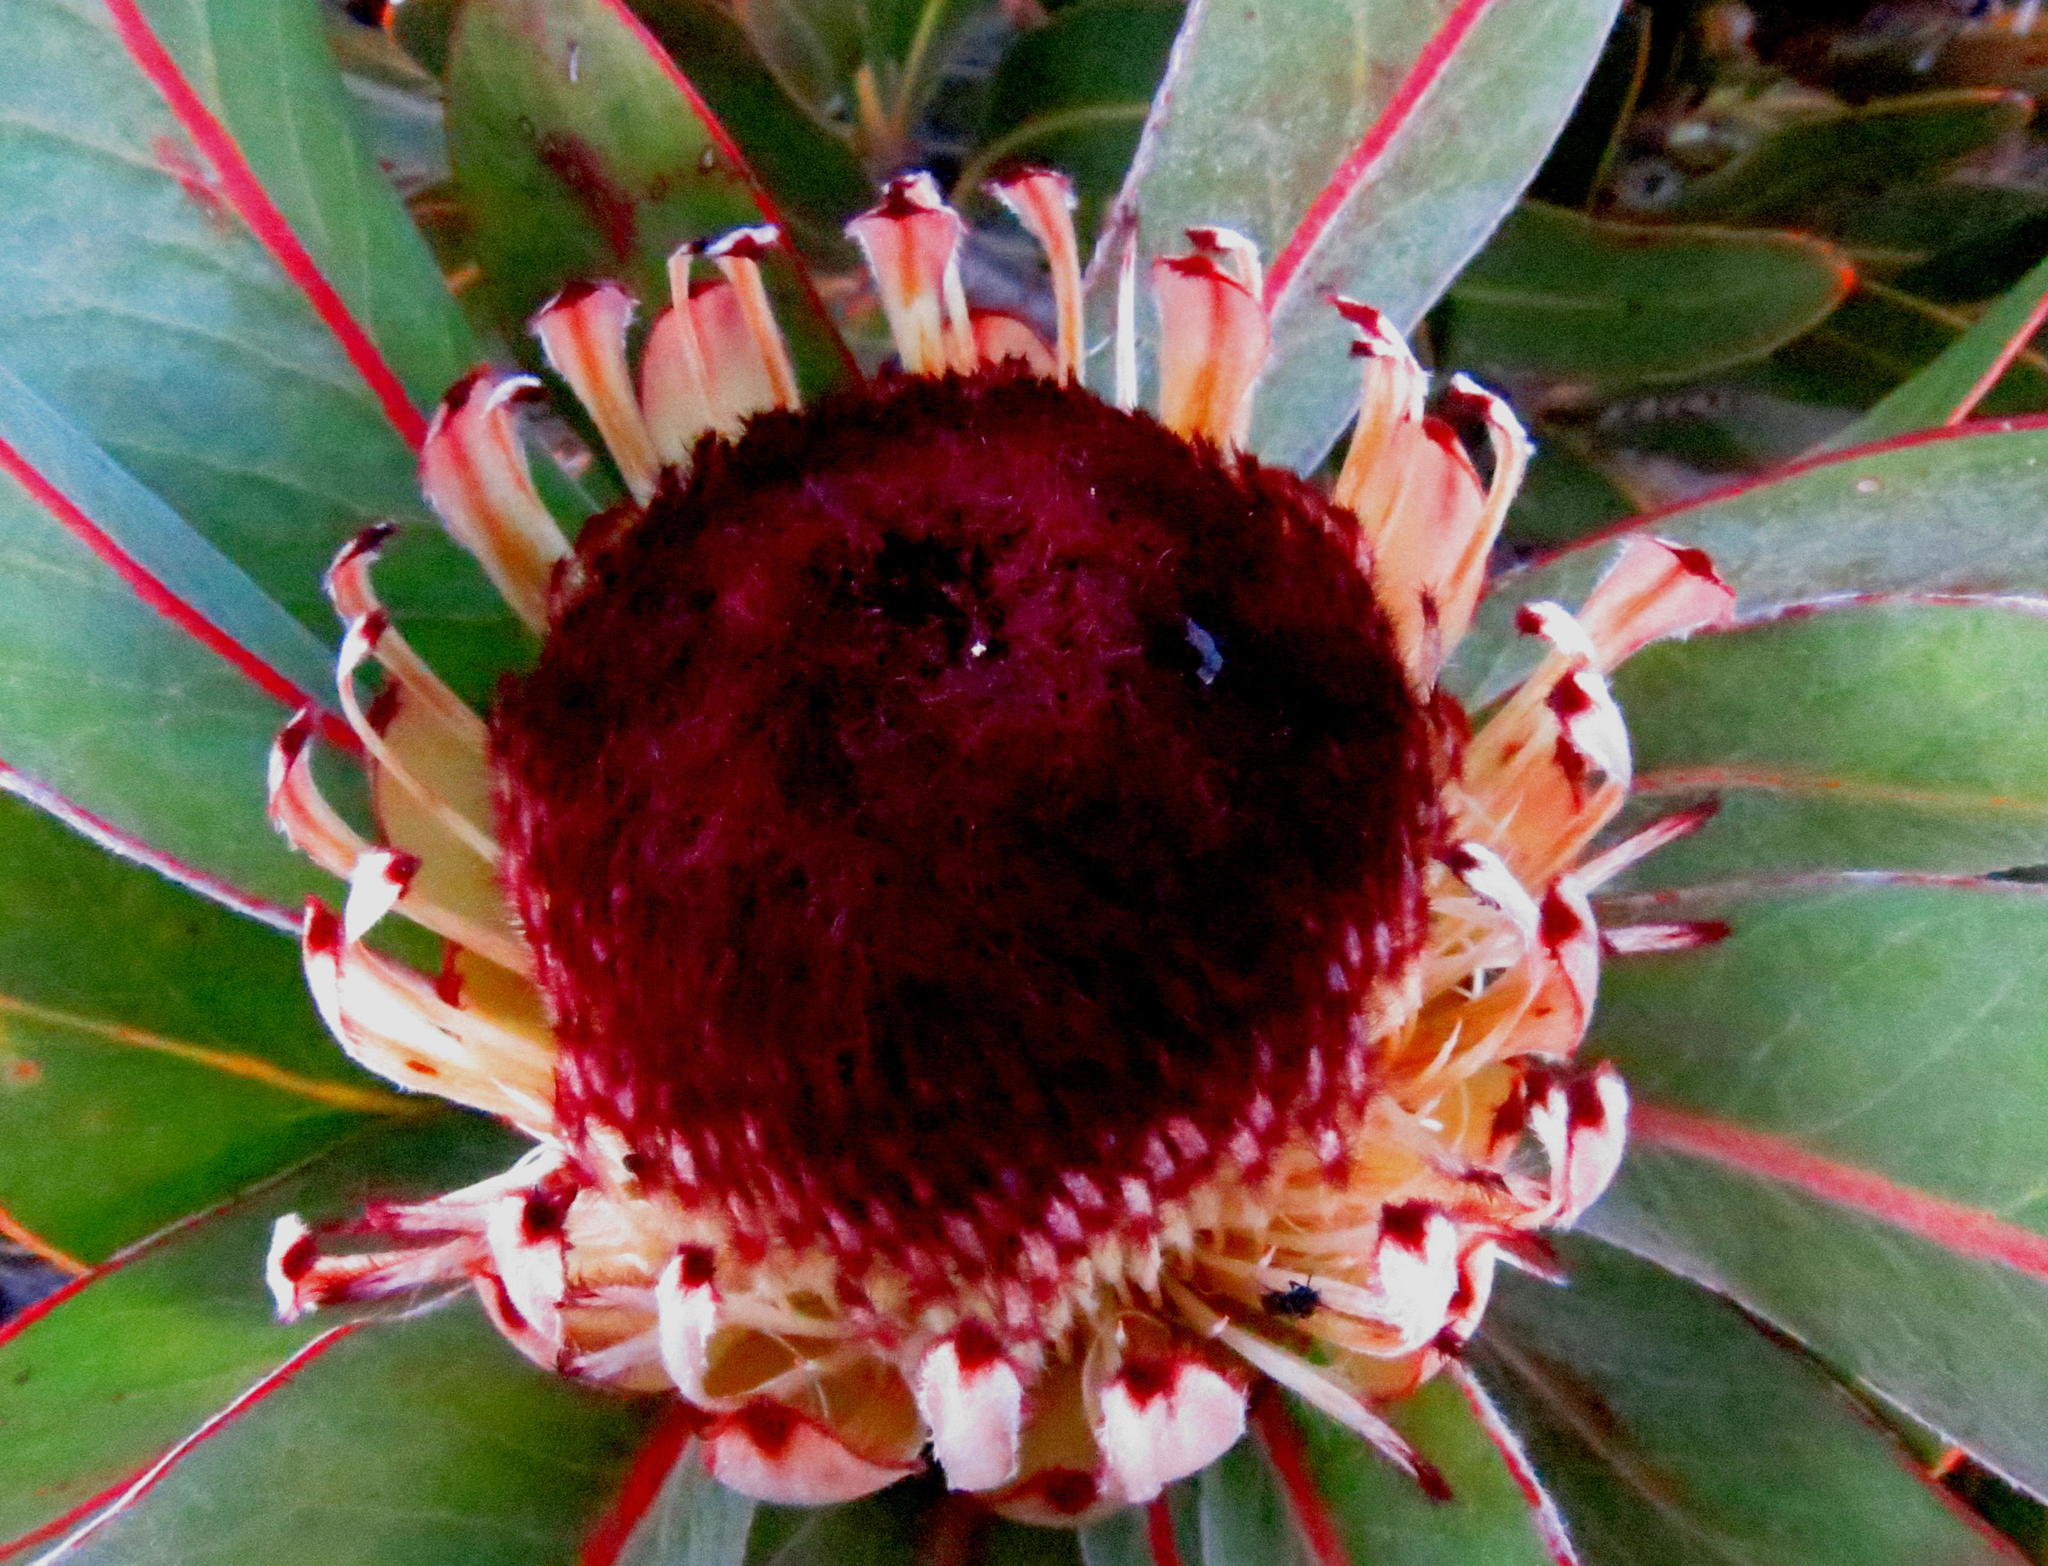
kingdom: Plantae
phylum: Tracheophyta
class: Magnoliopsida
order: Proteales
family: Proteaceae
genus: Protea
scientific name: Protea lorifolia
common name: Strap-leaved protea
